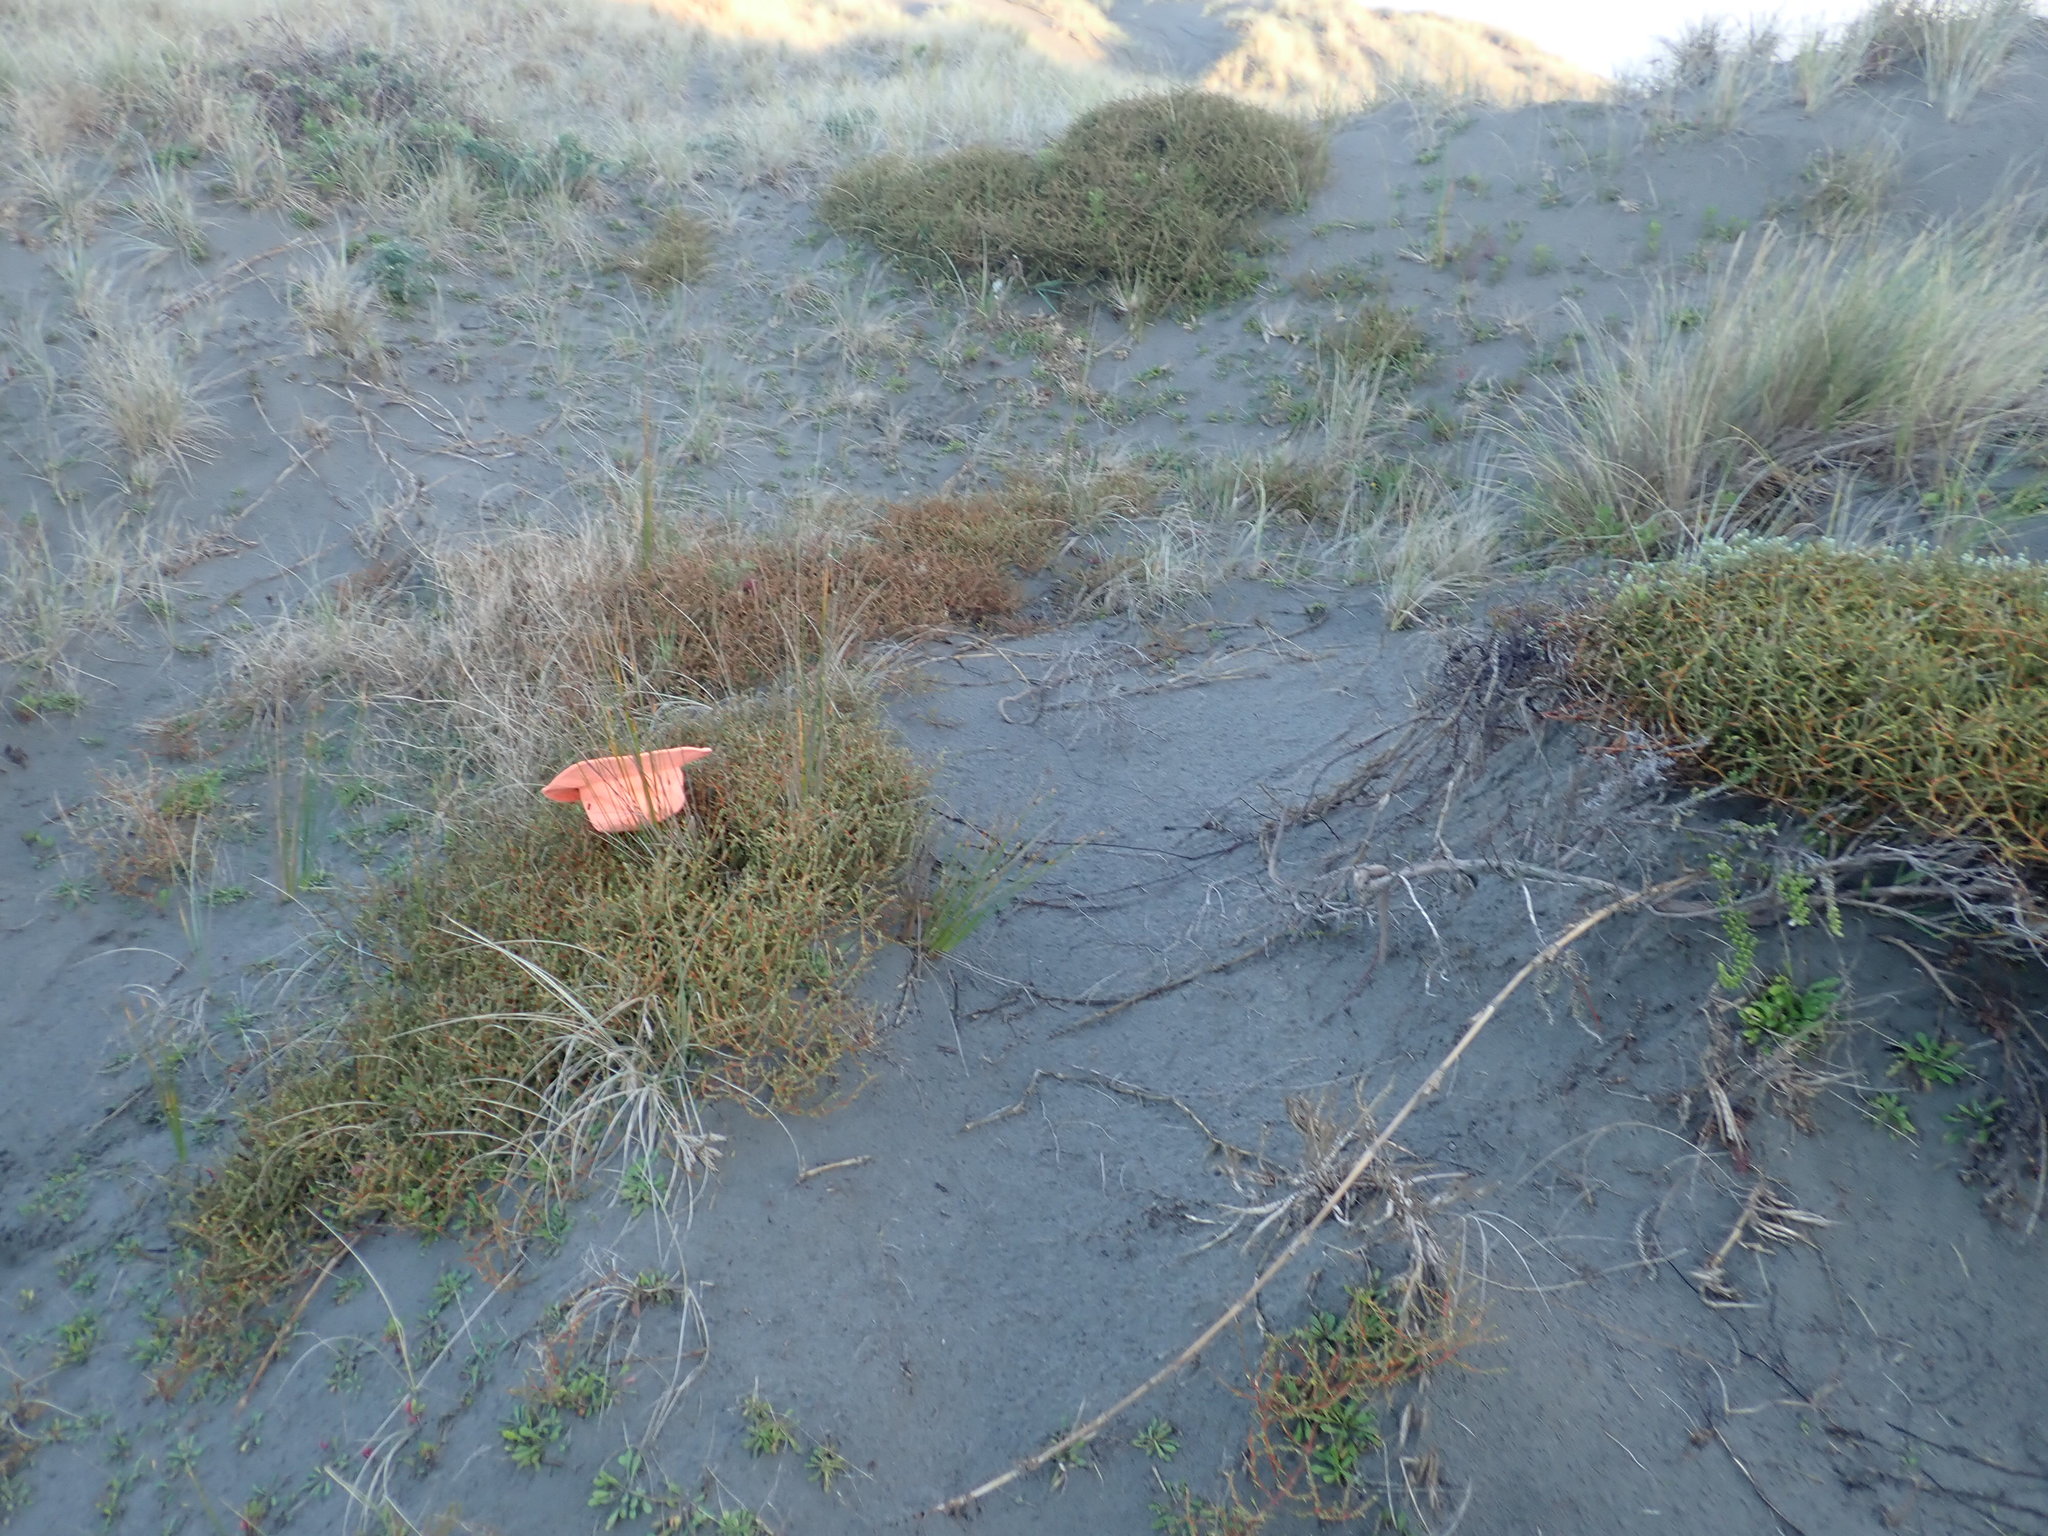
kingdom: Plantae
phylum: Tracheophyta
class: Magnoliopsida
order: Gentianales
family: Rubiaceae
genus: Coprosma
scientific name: Coprosma acerosa
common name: Sand coprosma
